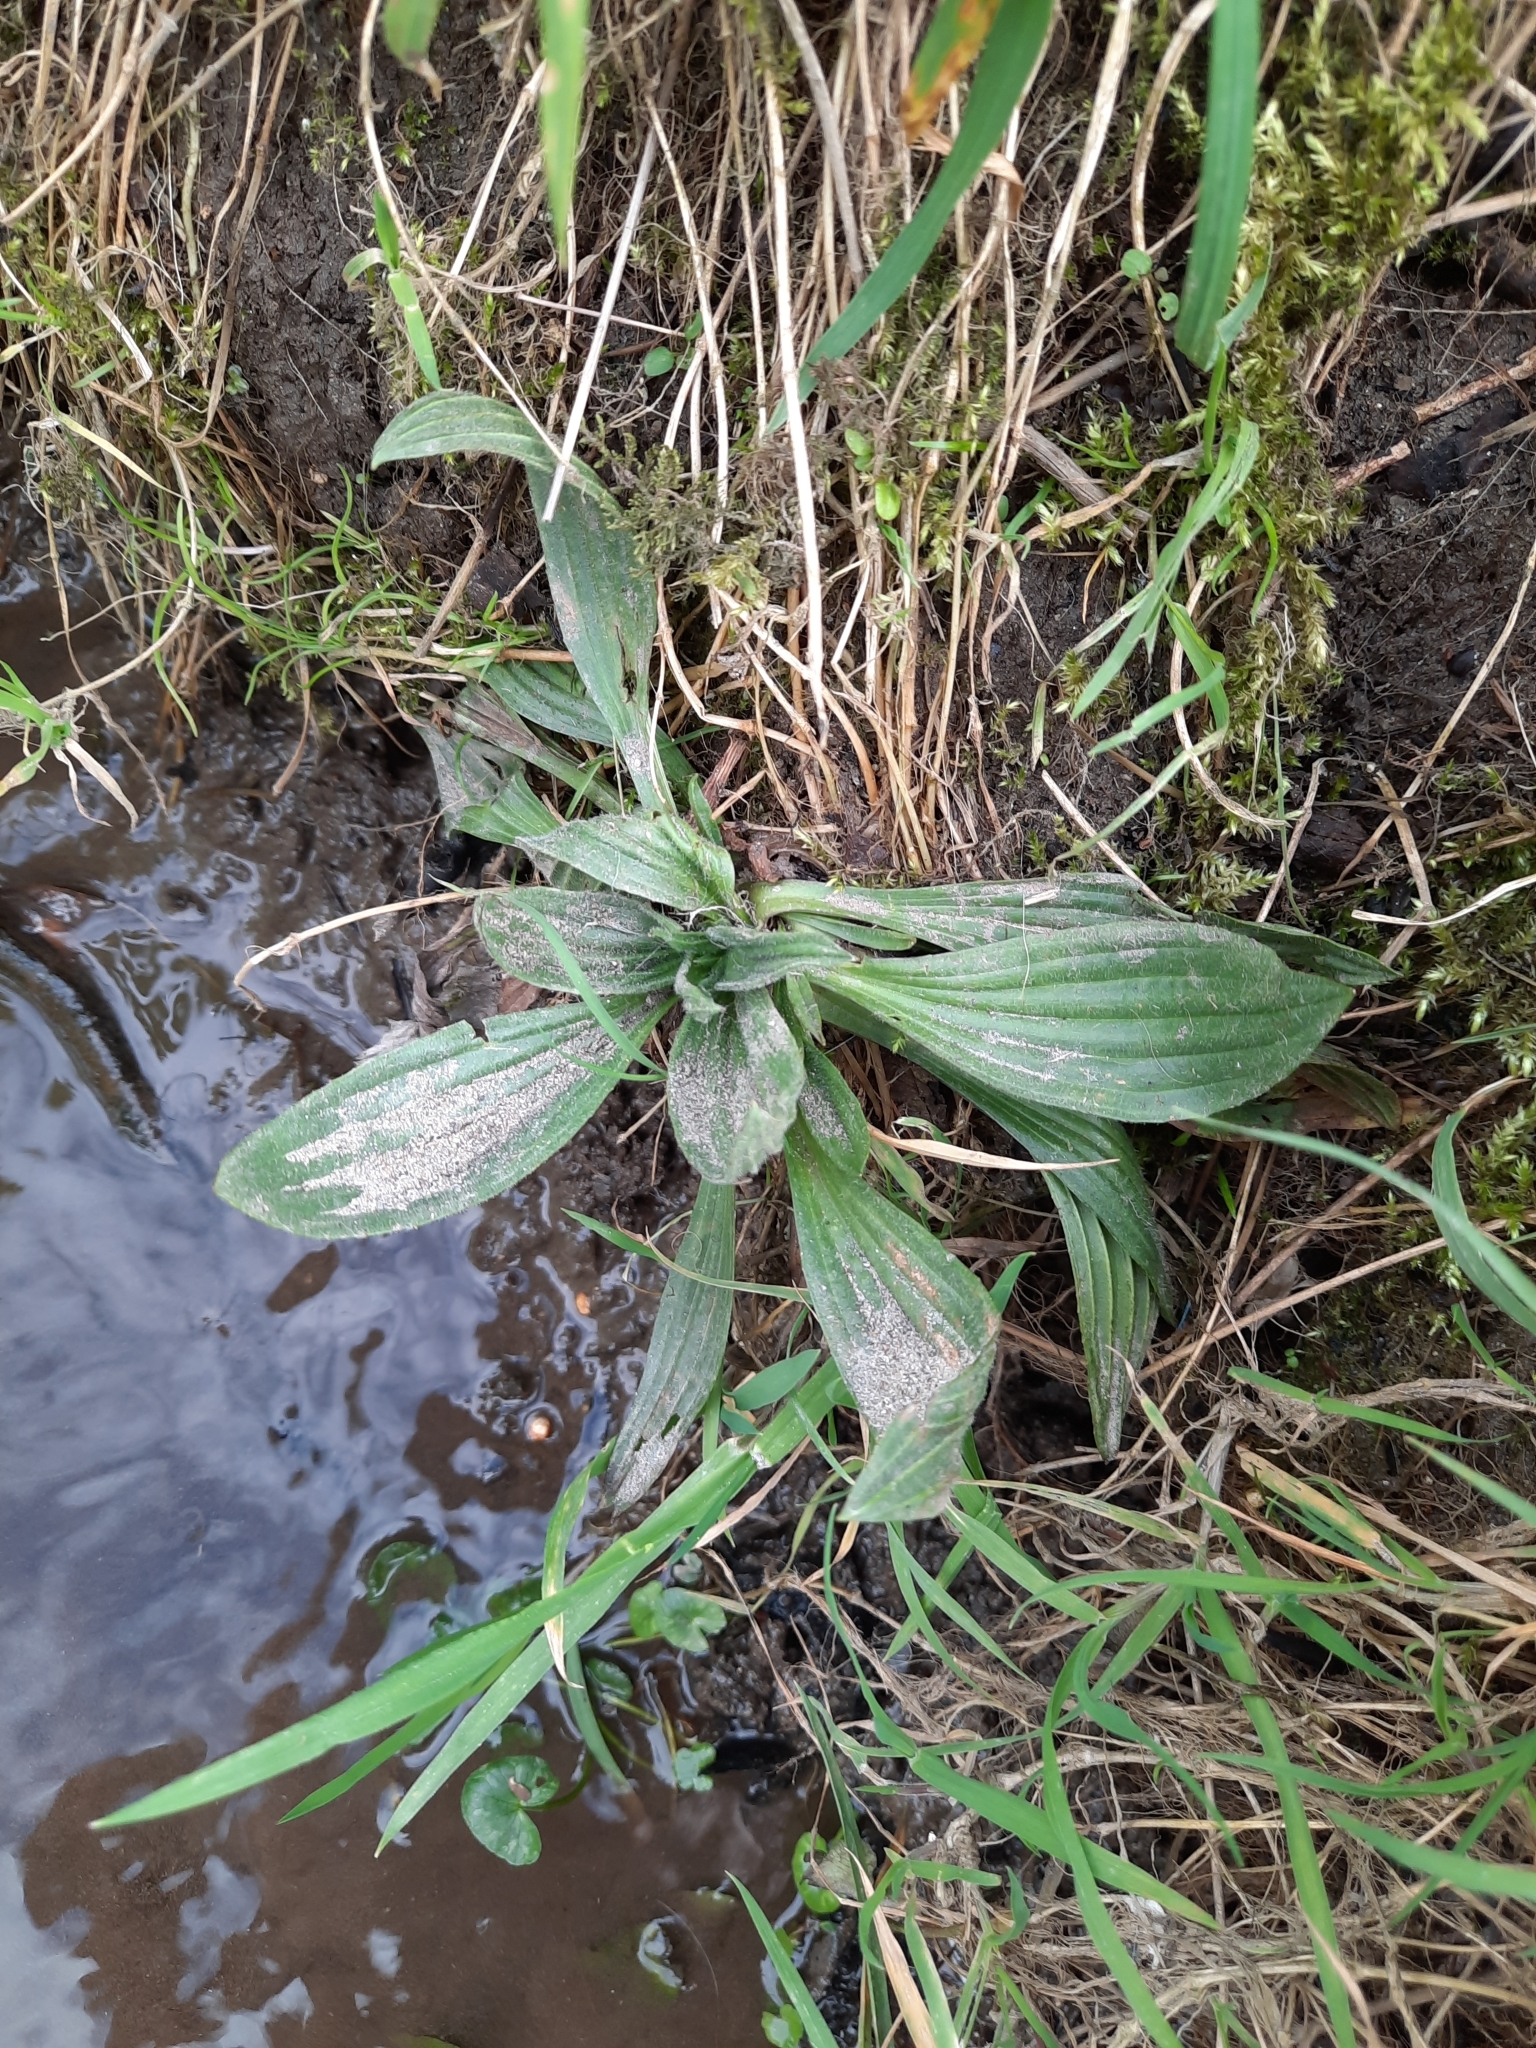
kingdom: Plantae
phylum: Tracheophyta
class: Magnoliopsida
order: Lamiales
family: Plantaginaceae
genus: Plantago
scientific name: Plantago lanceolata
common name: Ribwort plantain
